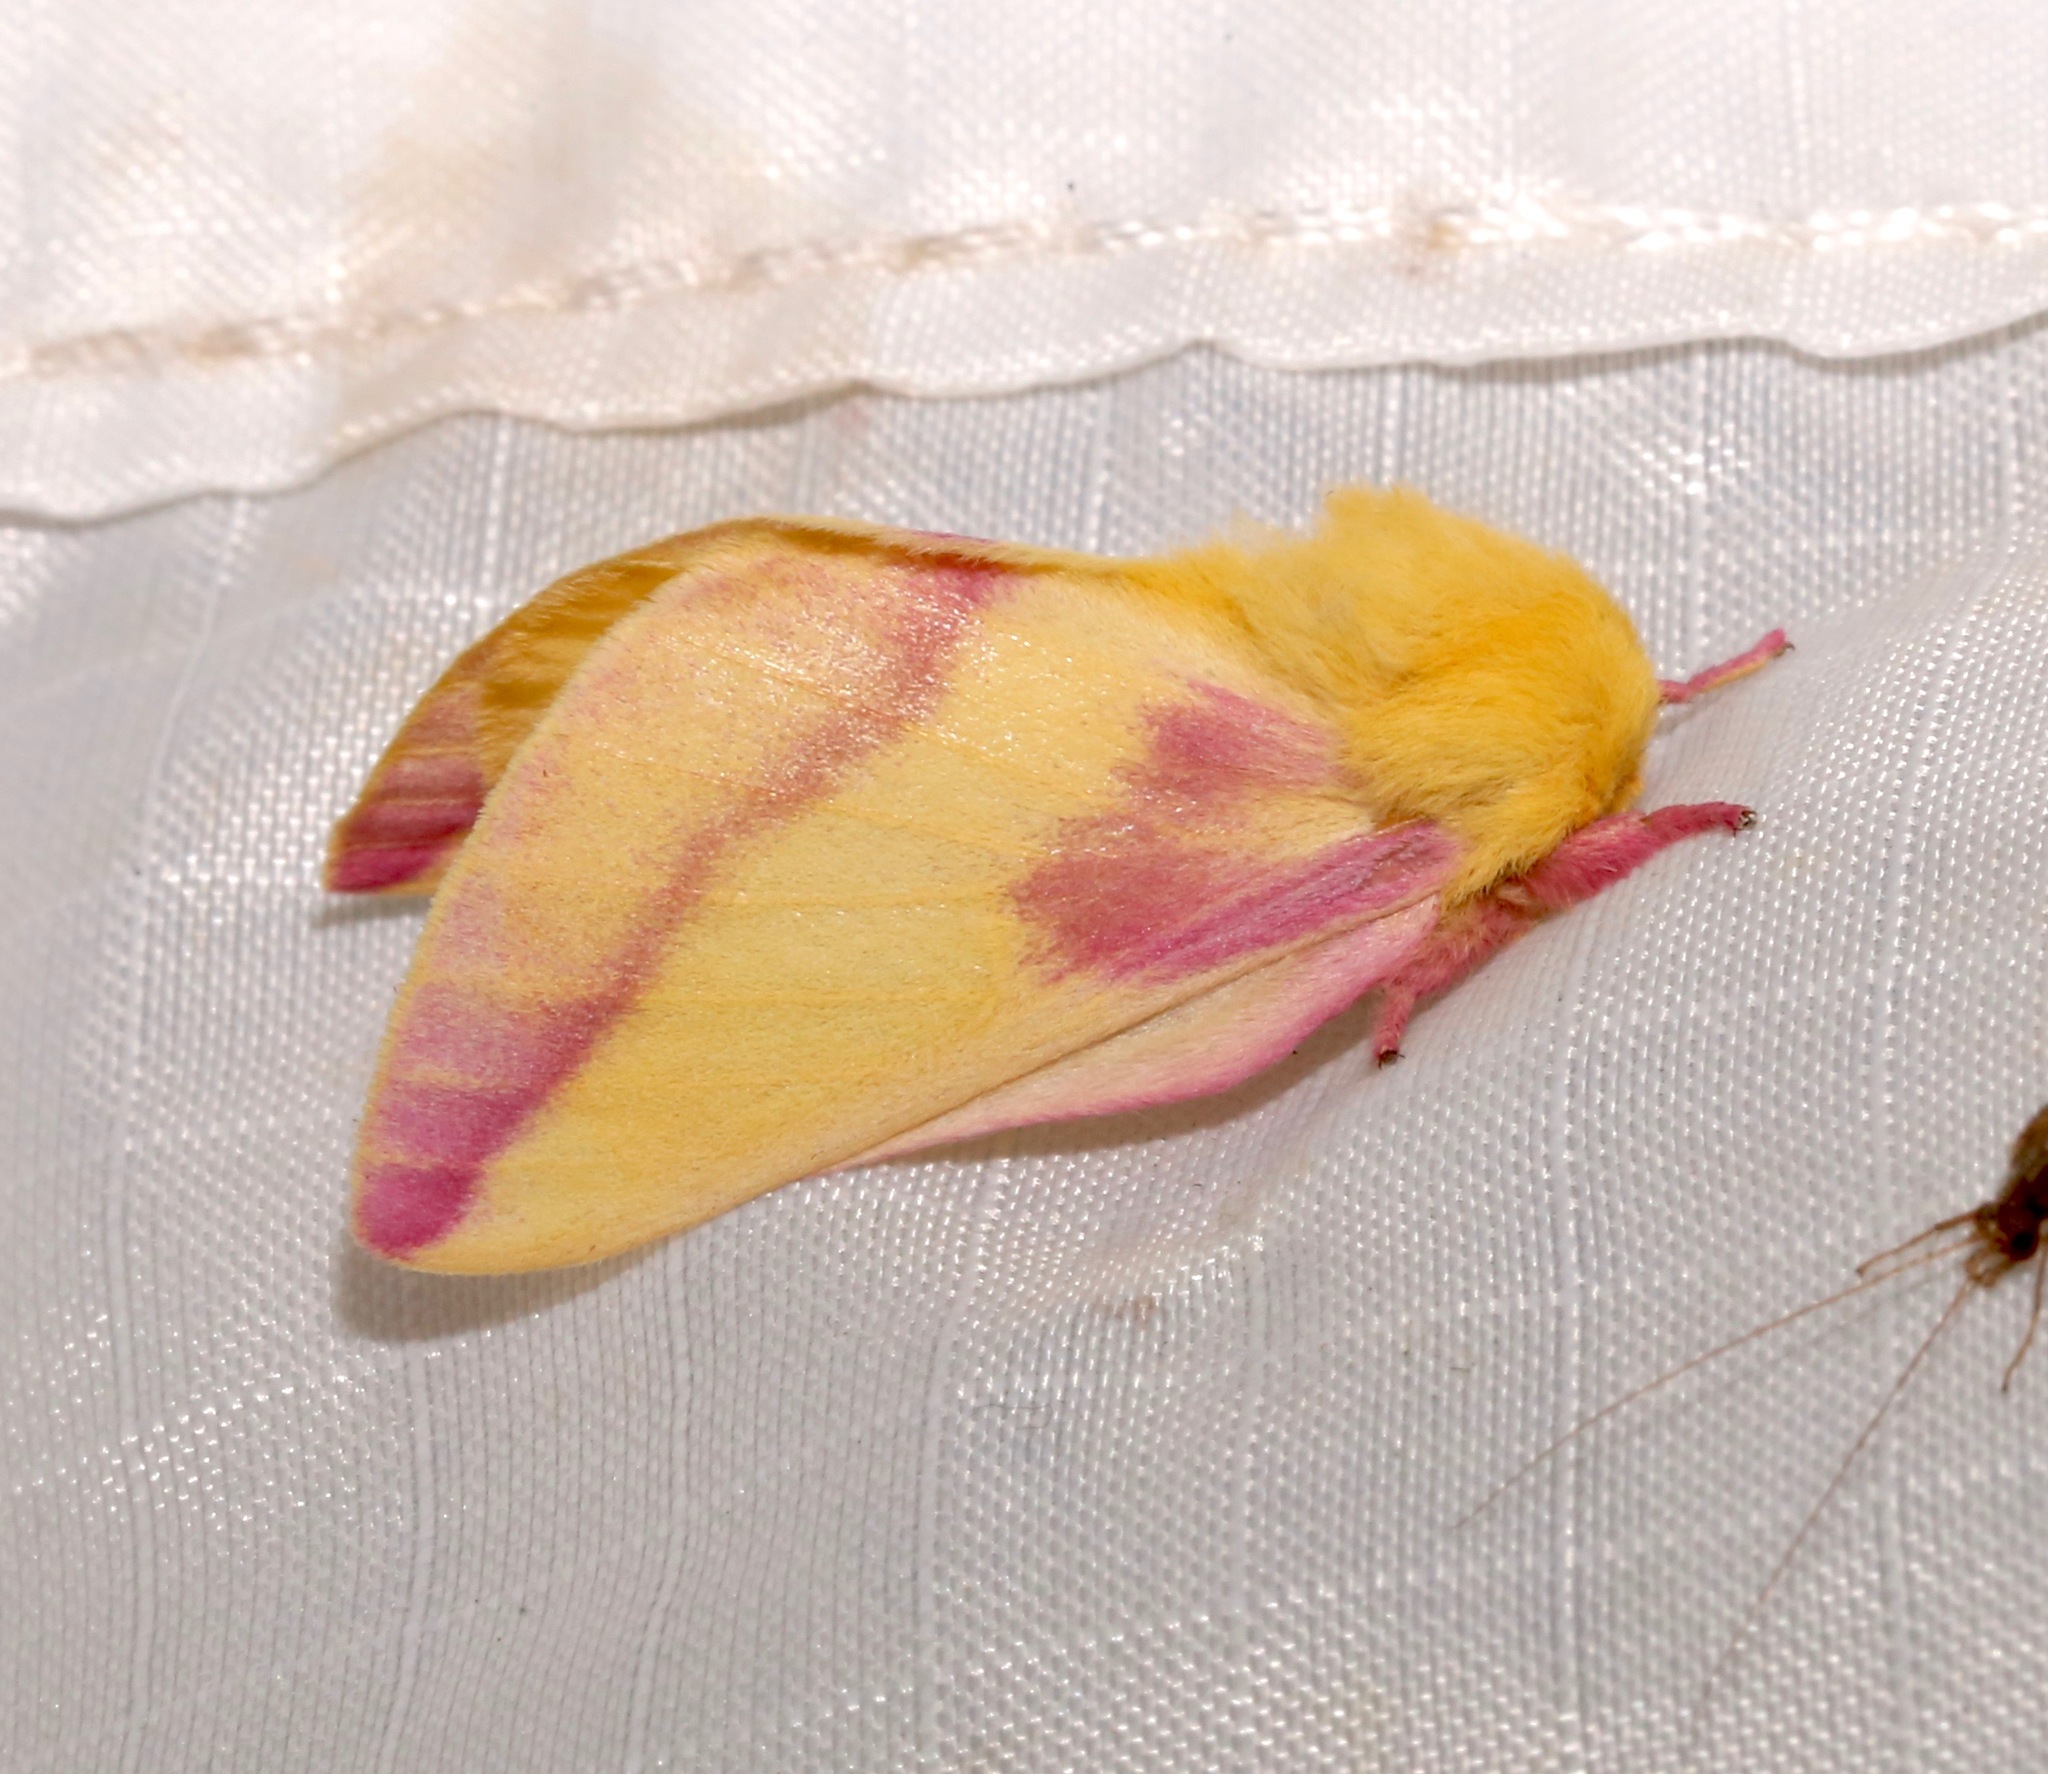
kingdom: Animalia
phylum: Arthropoda
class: Insecta
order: Lepidoptera
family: Saturniidae
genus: Dryocampa
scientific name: Dryocampa rubicunda
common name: Rosy maple moth
